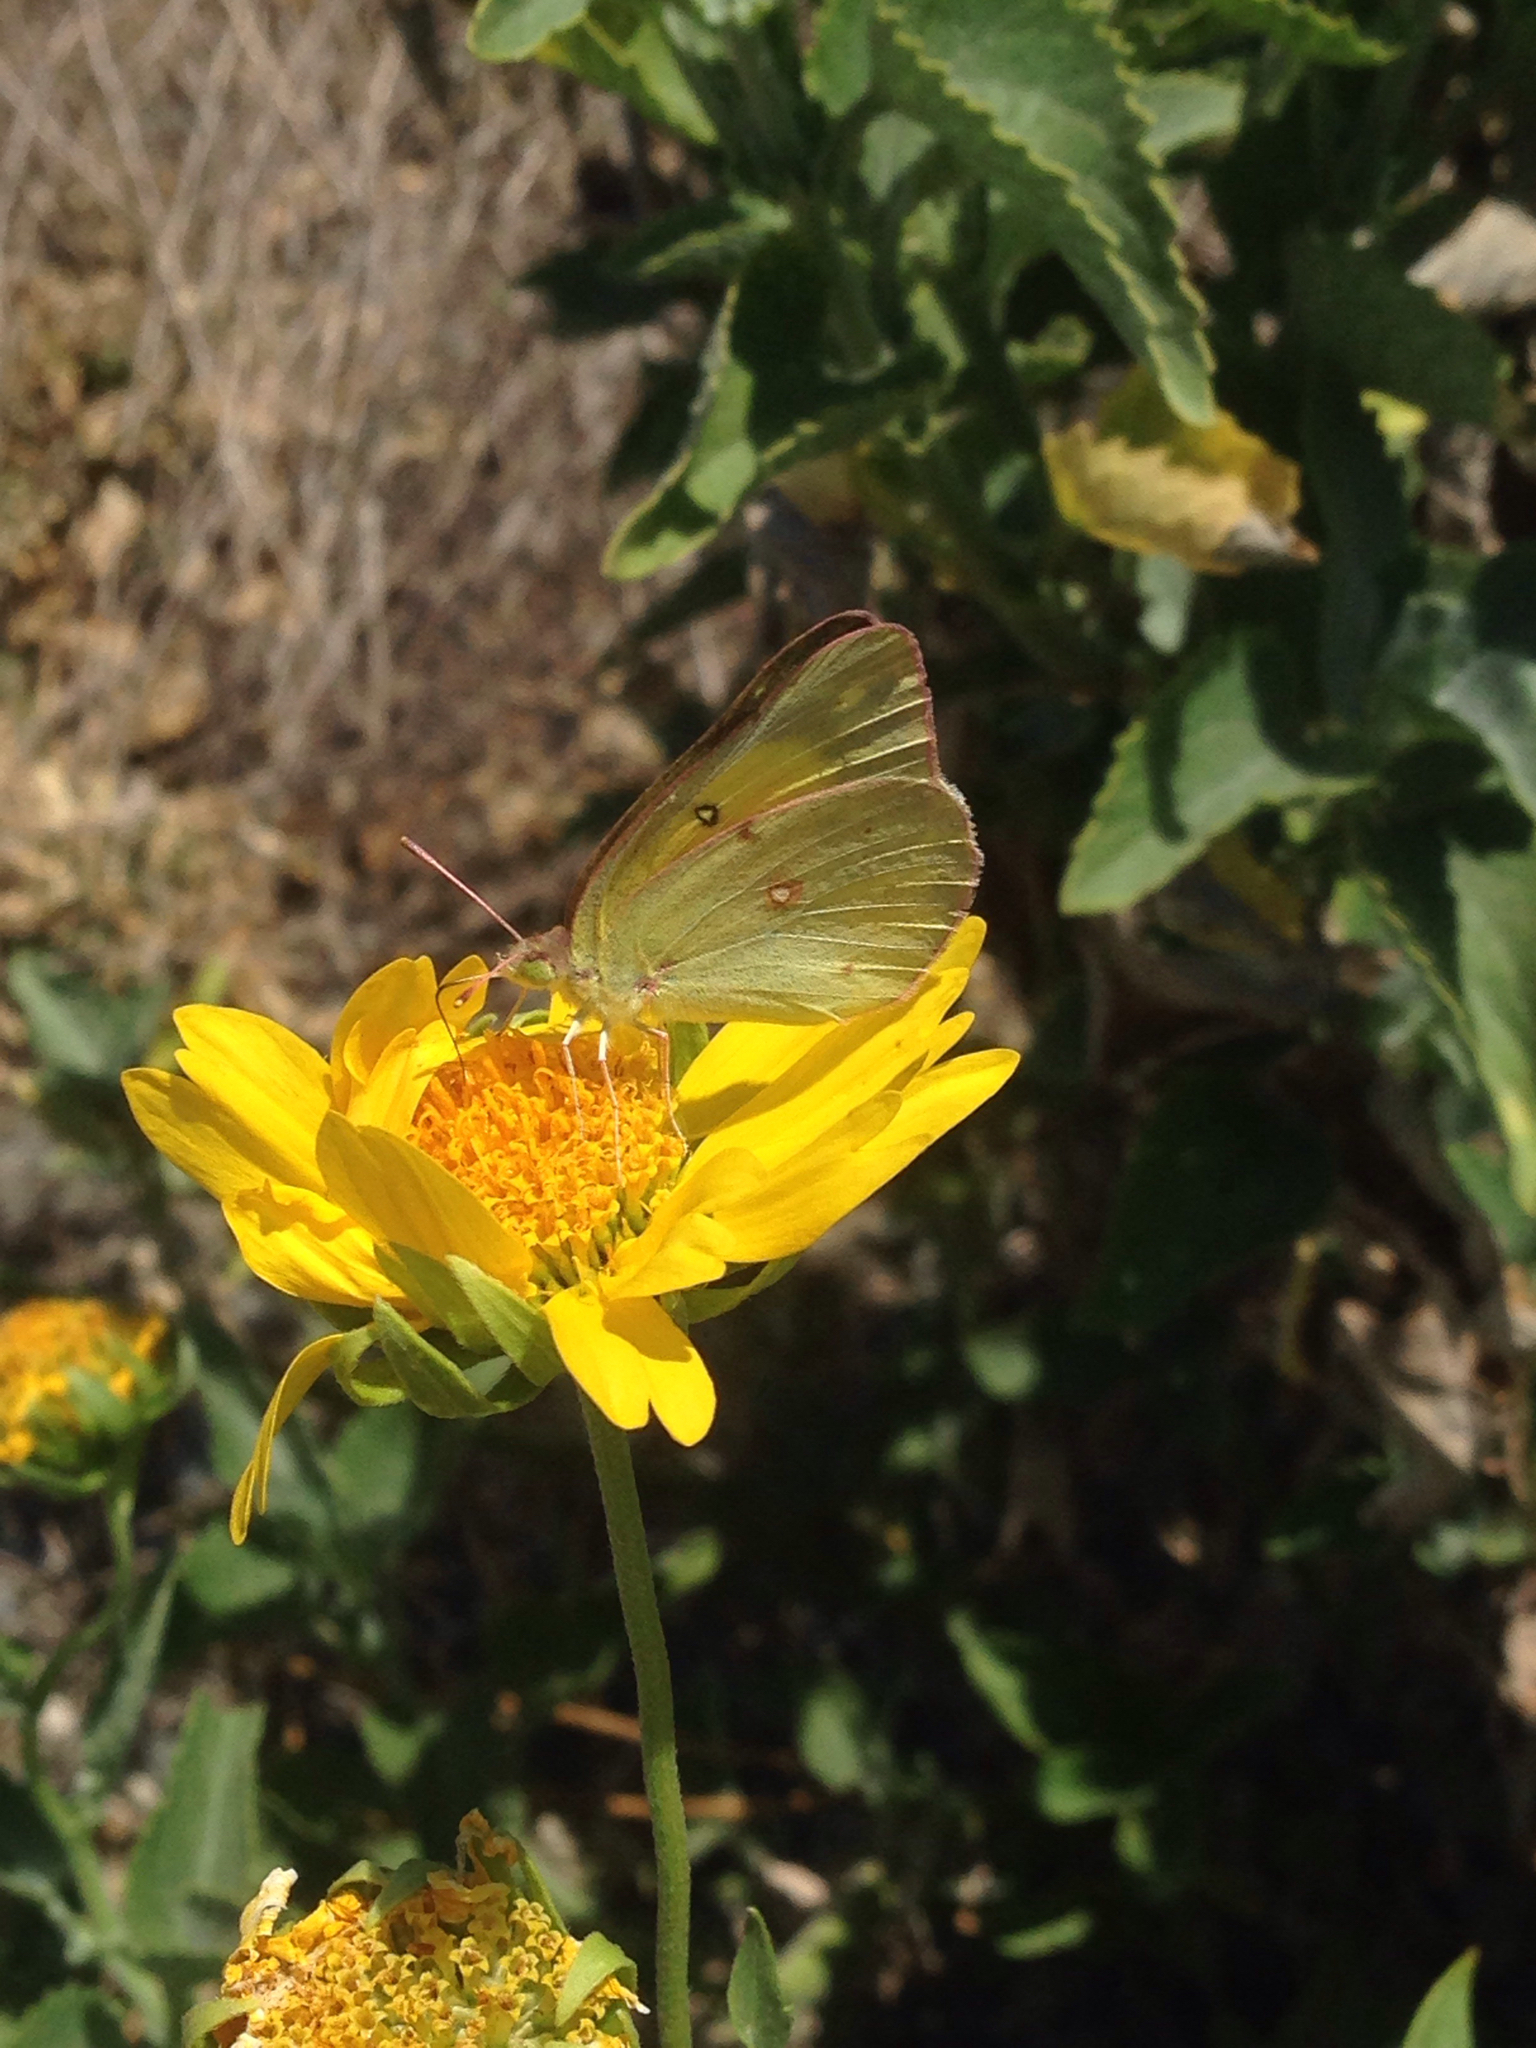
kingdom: Animalia
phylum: Arthropoda
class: Insecta
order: Lepidoptera
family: Pieridae
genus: Colias
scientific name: Colias eurytheme
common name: Alfalfa butterfly
